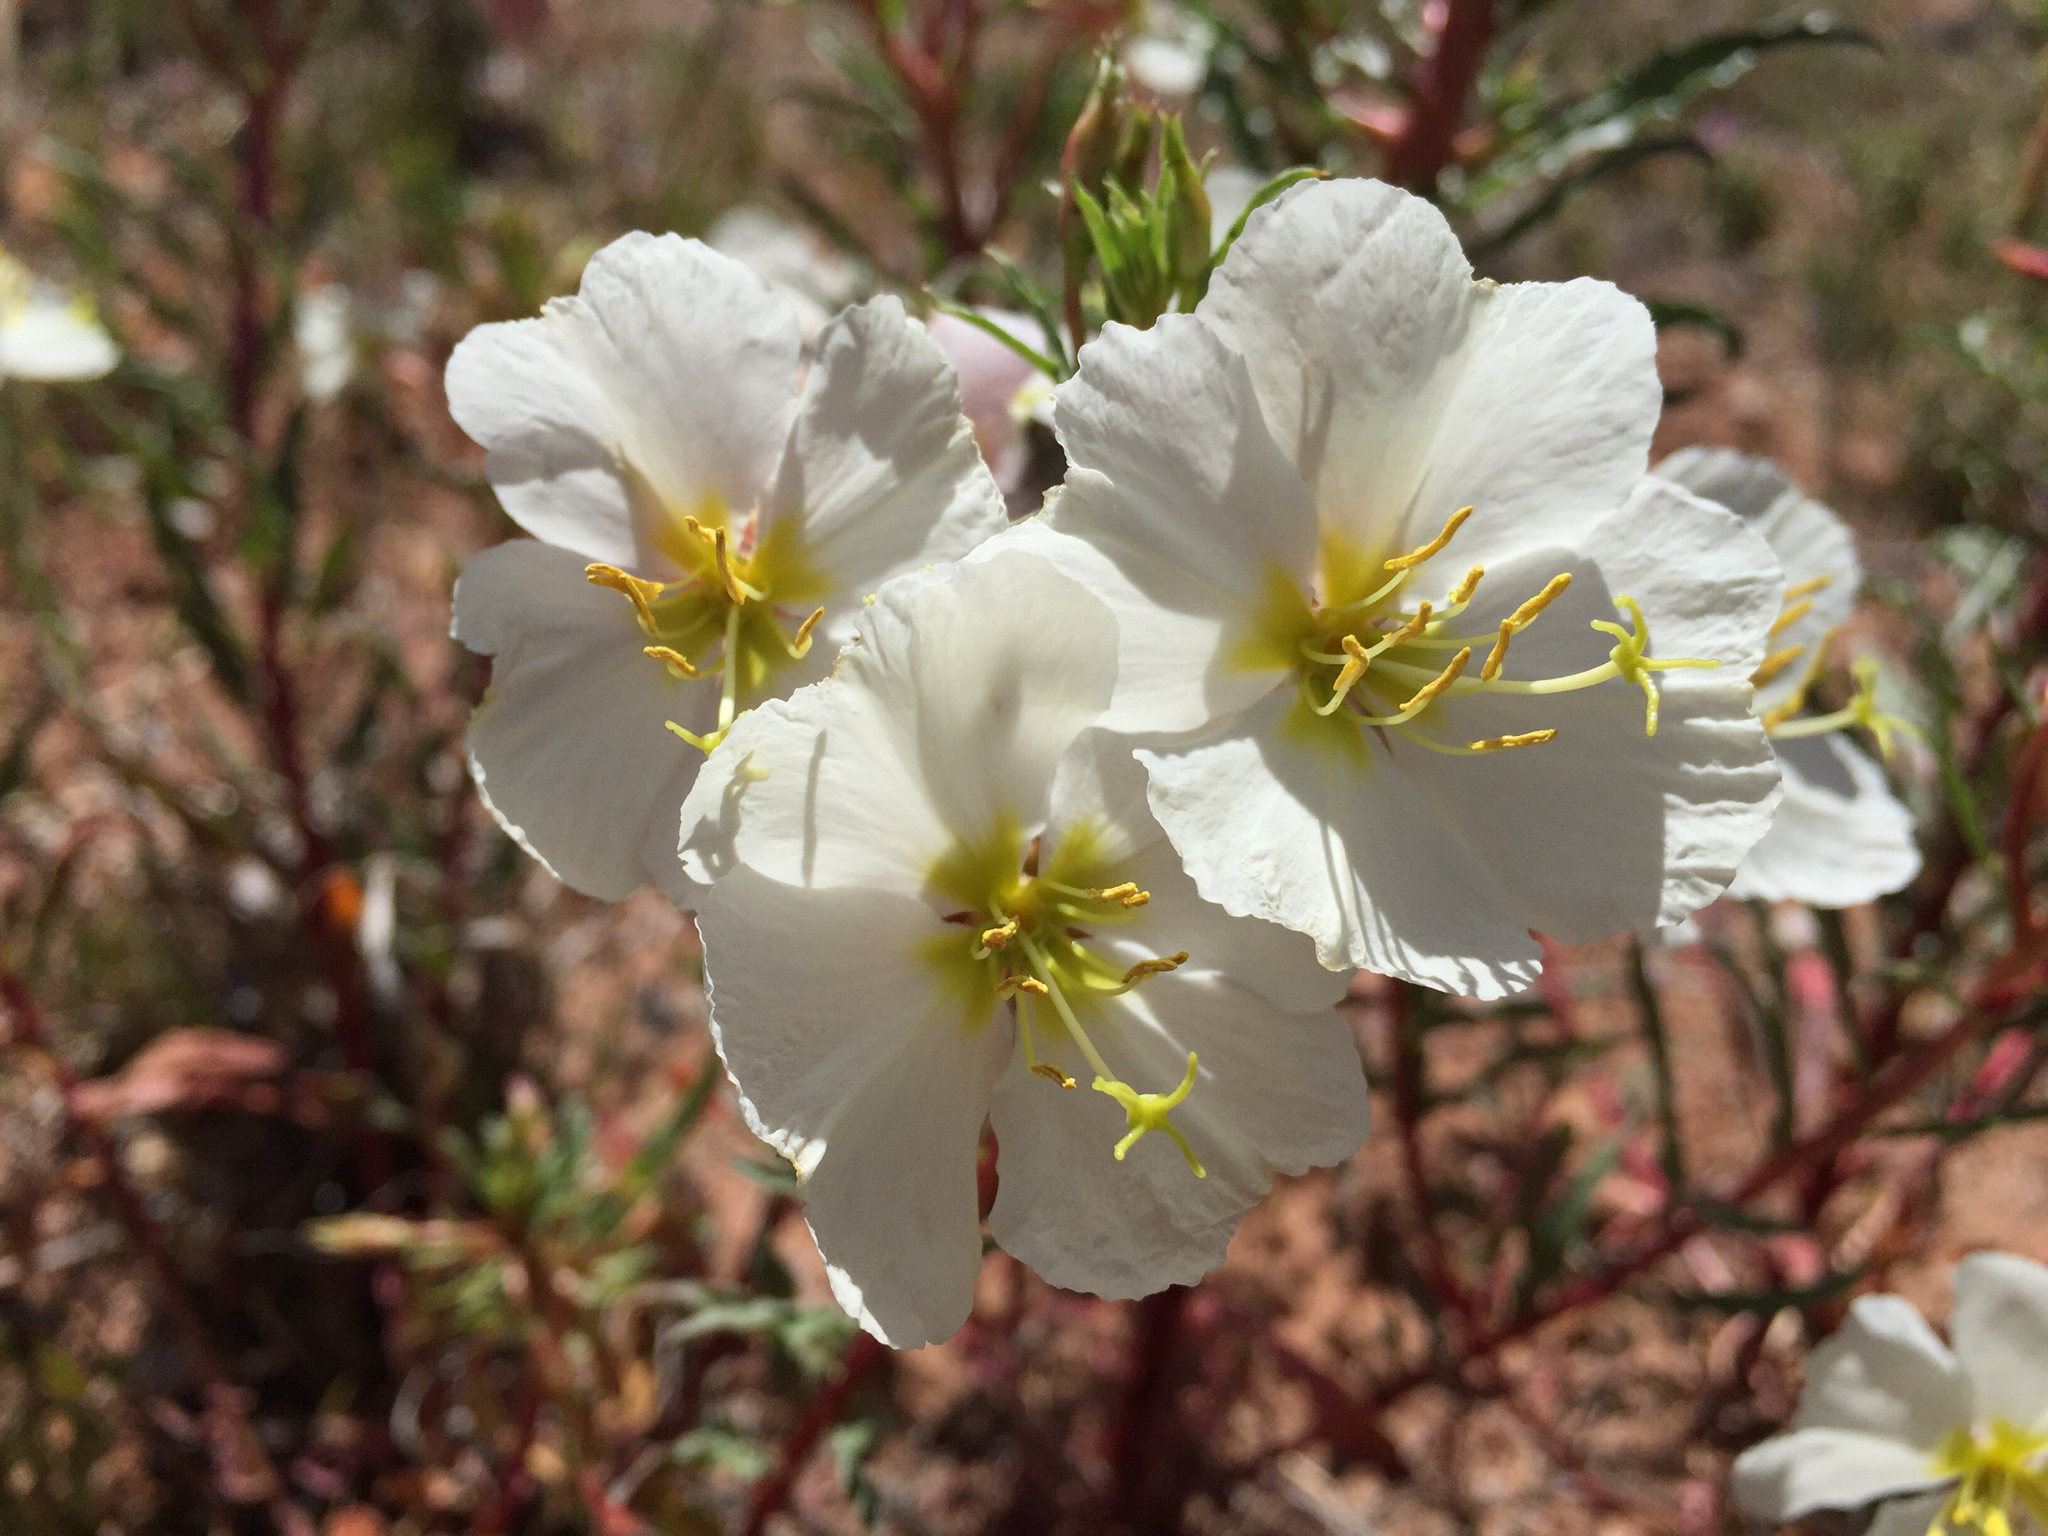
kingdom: Plantae
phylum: Tracheophyta
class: Magnoliopsida
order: Myrtales
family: Onagraceae
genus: Oenothera
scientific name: Oenothera pallida
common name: Pale evening-primrose
